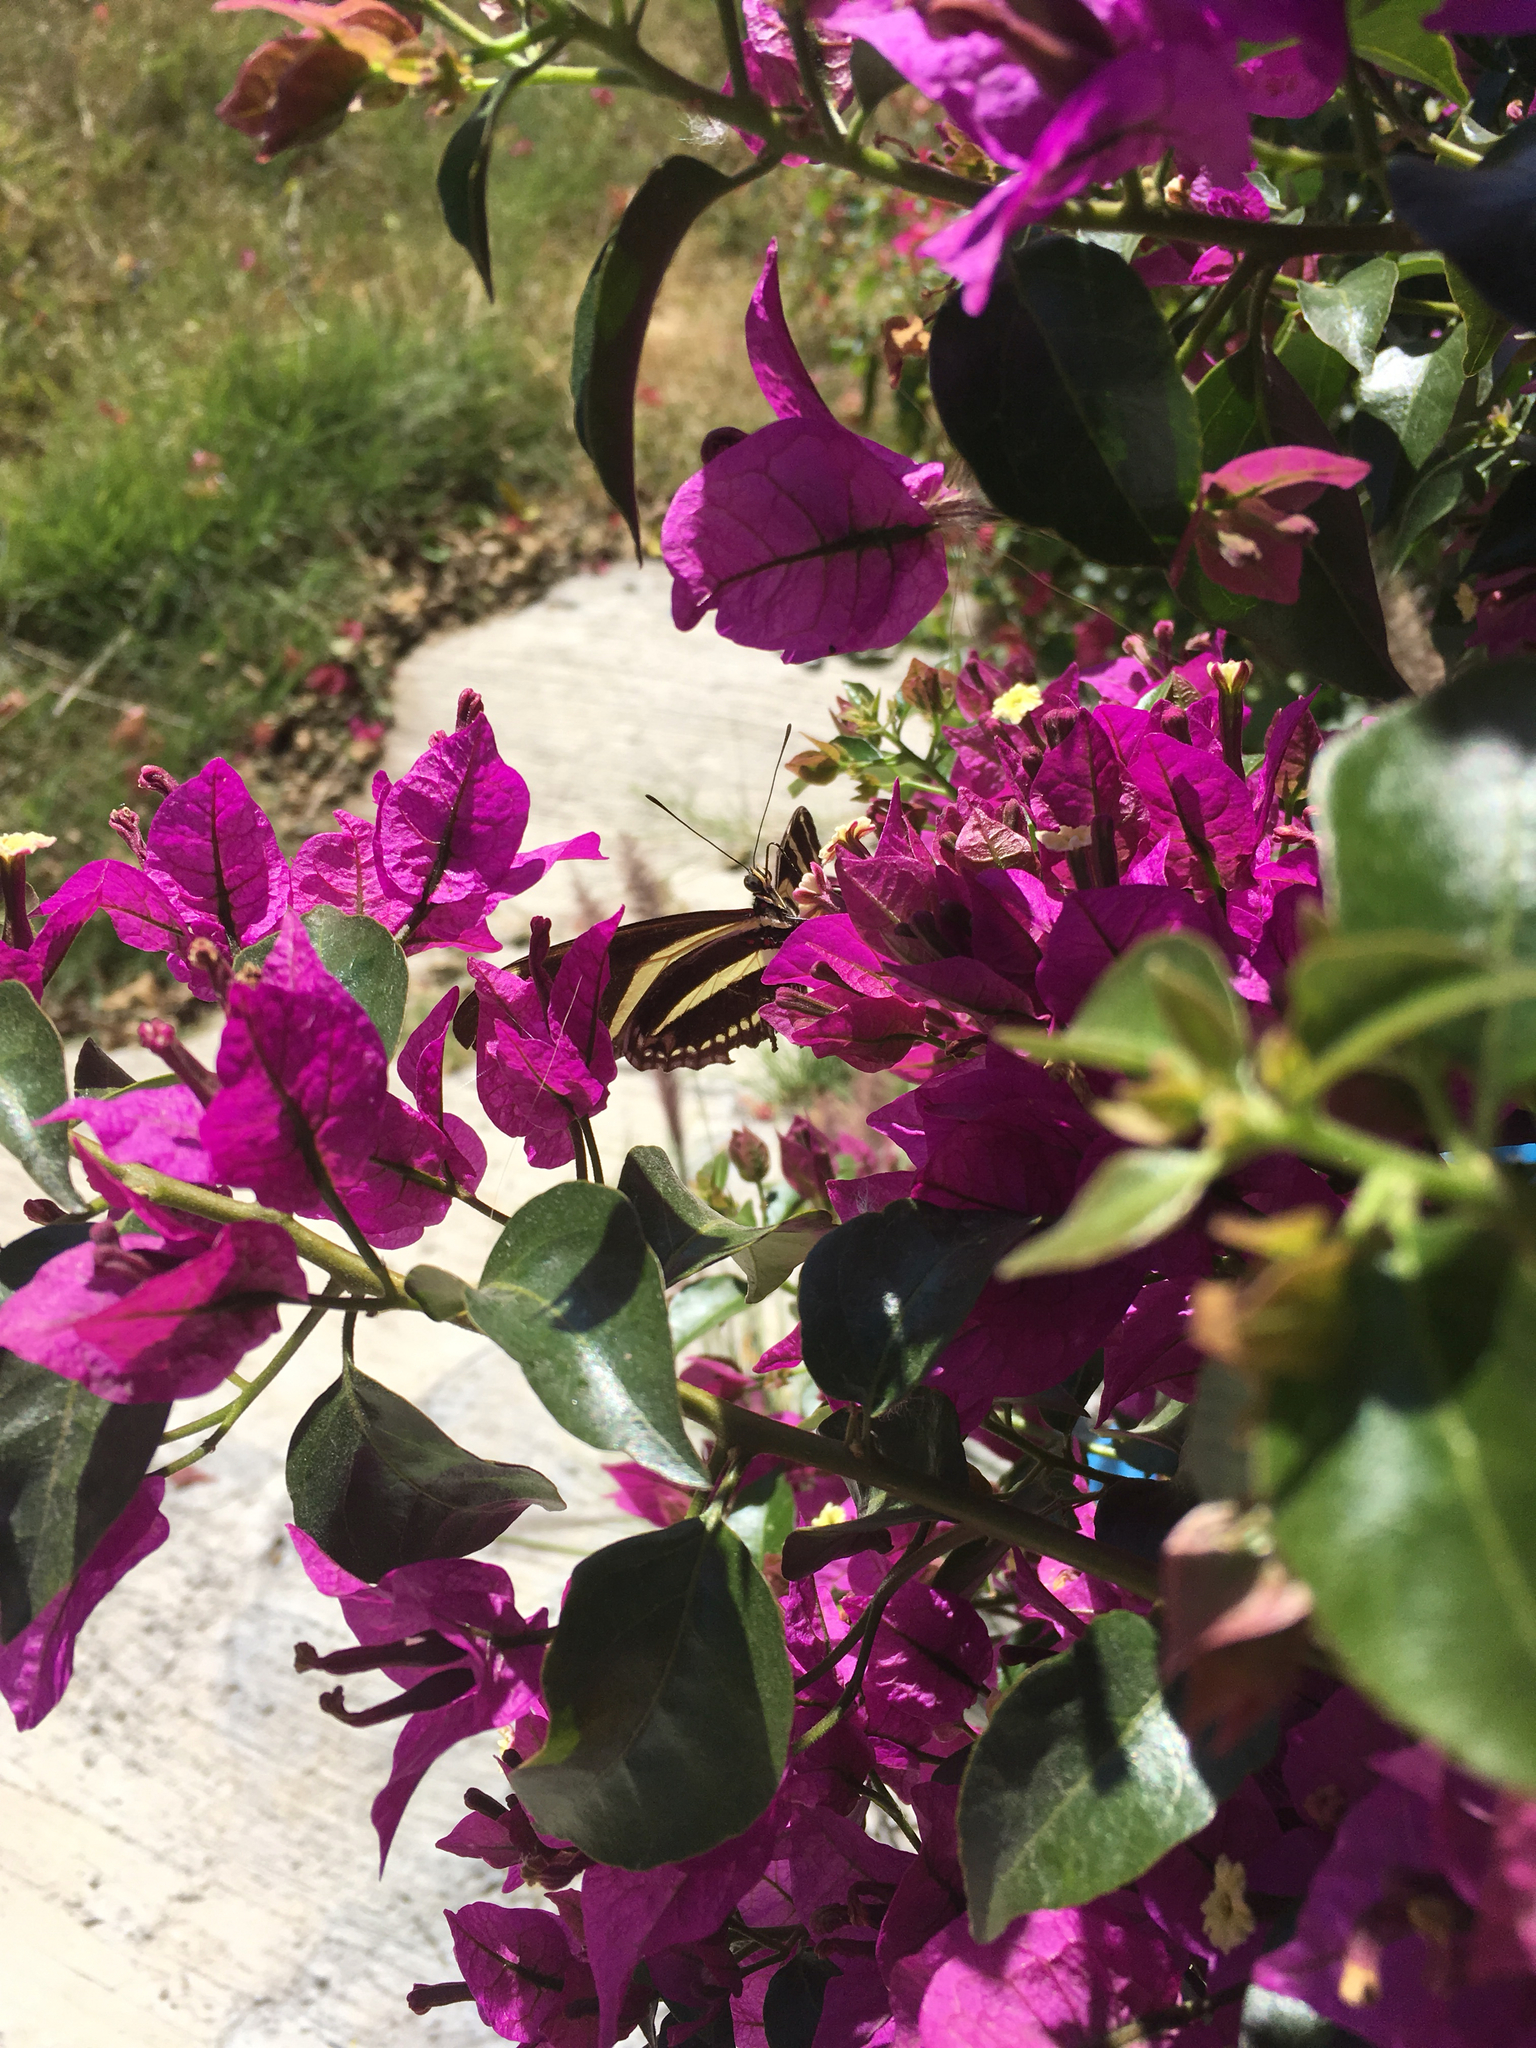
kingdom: Animalia
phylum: Arthropoda
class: Insecta
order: Lepidoptera
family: Nymphalidae
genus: Heliconius
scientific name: Heliconius charithonia
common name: Zebra long wing
